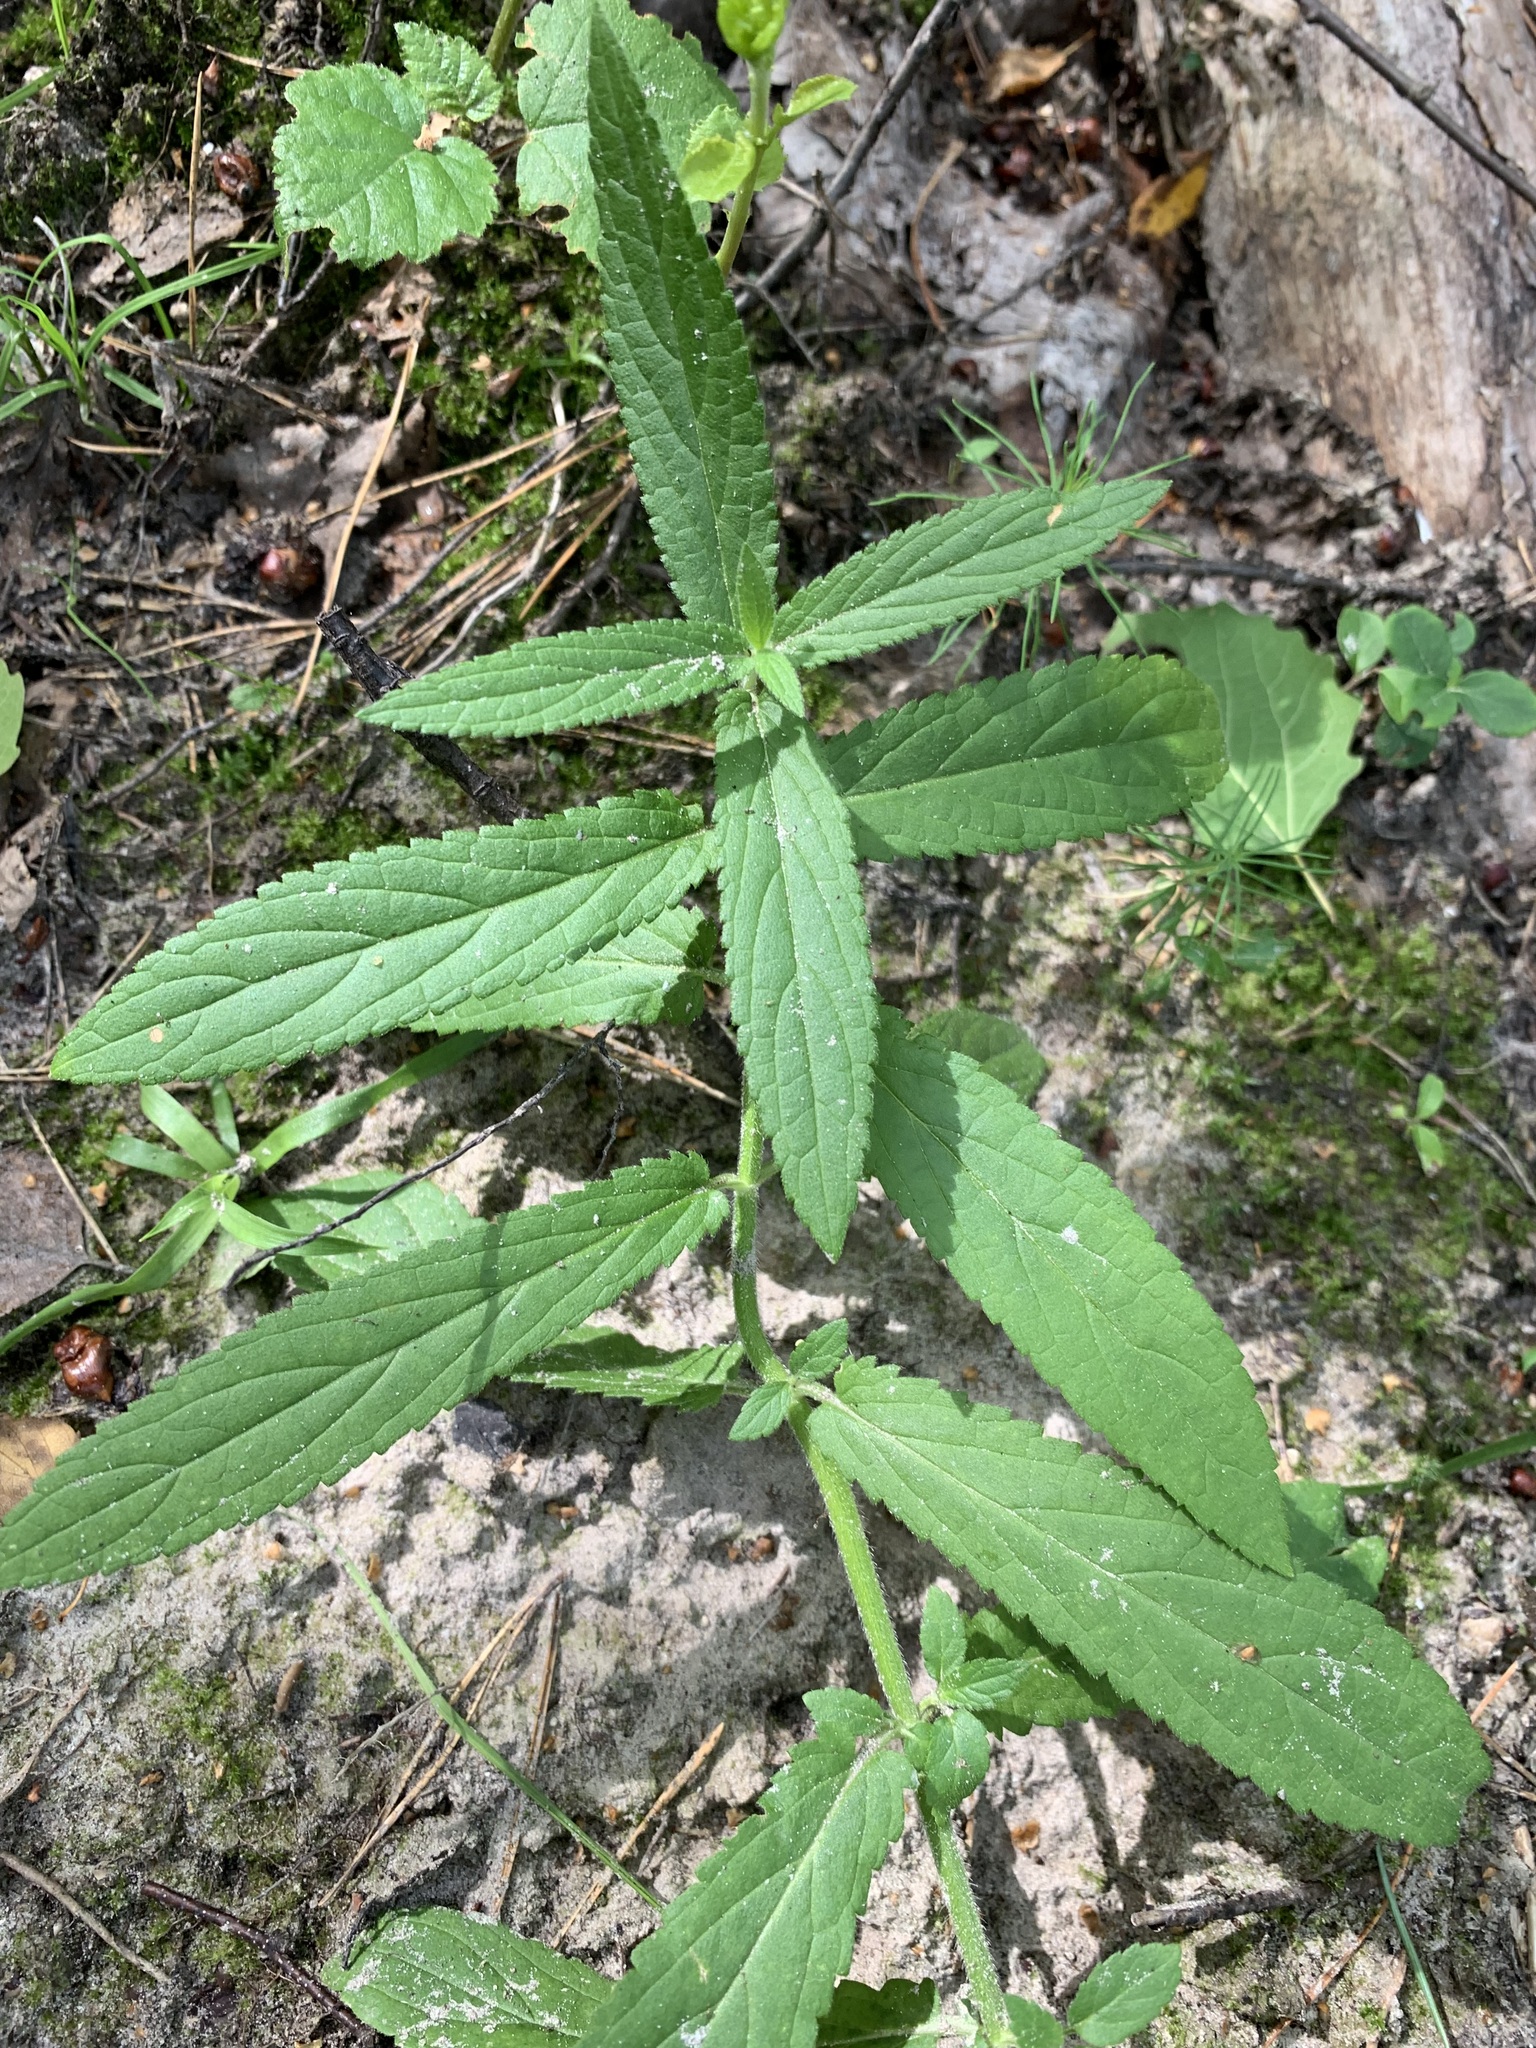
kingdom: Plantae
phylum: Tracheophyta
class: Magnoliopsida
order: Lamiales
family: Lamiaceae
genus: Stachys
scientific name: Stachys palustris
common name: Marsh woundwort
